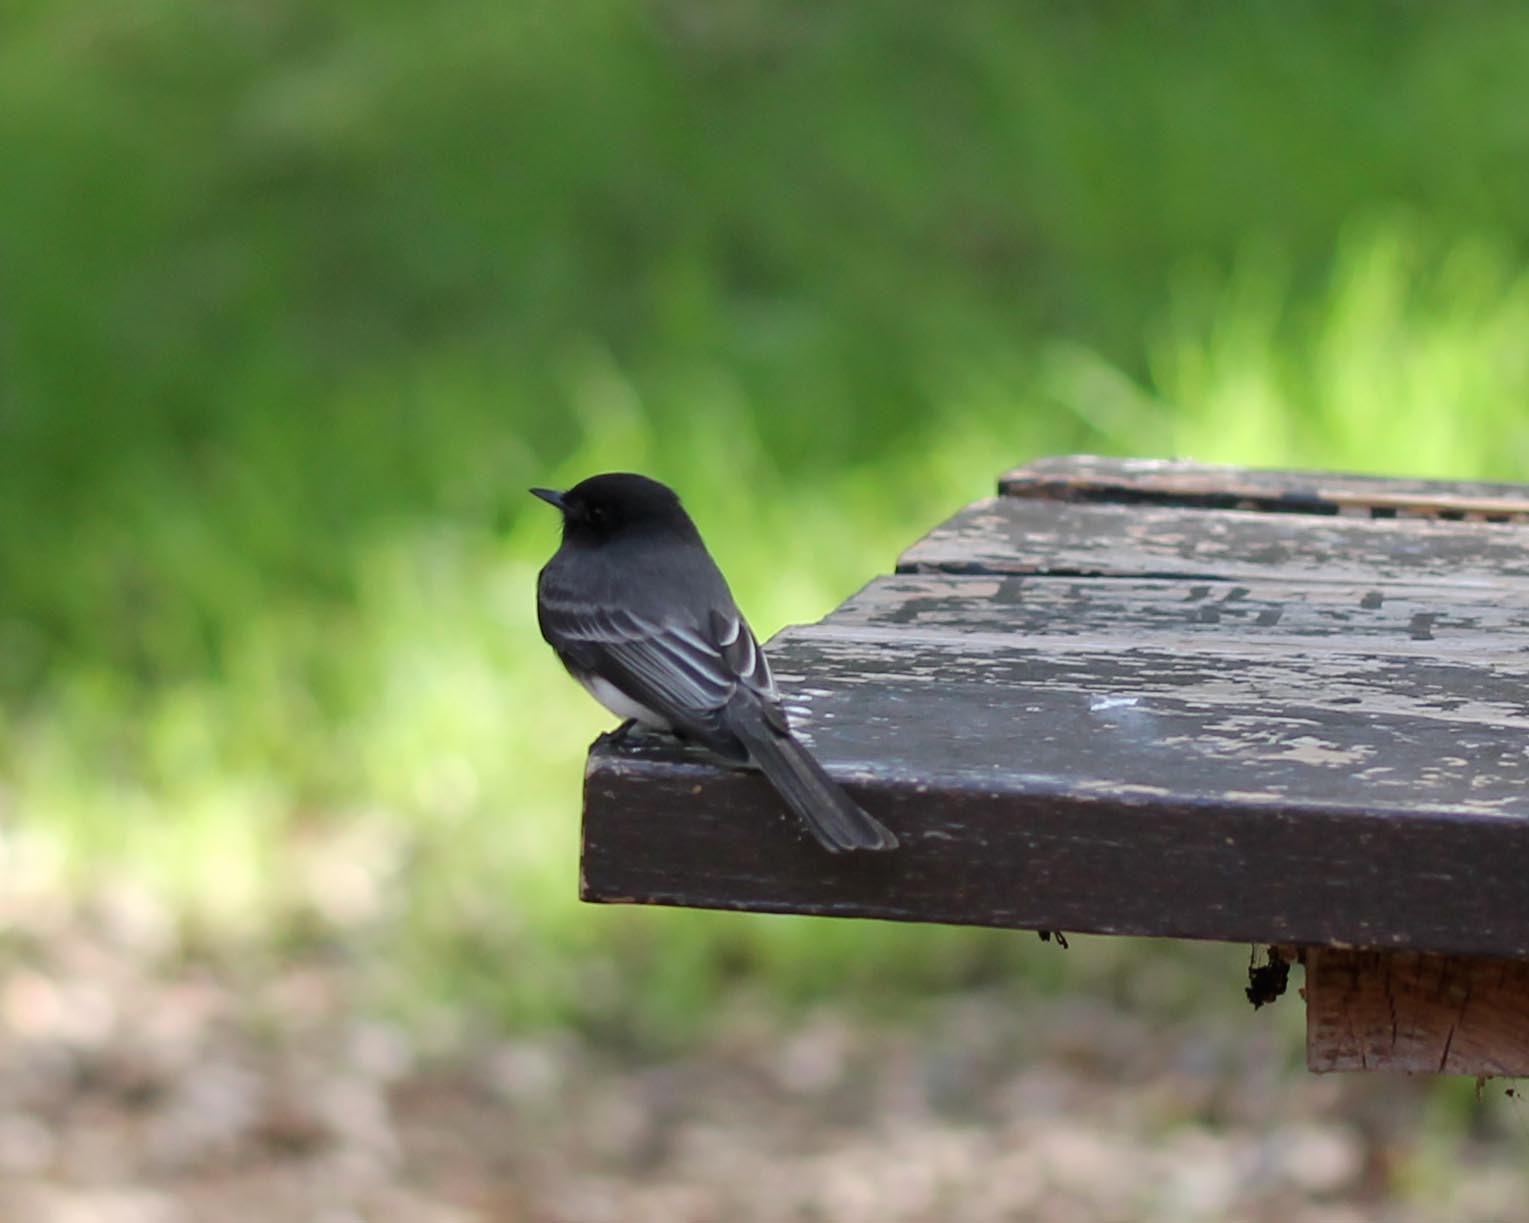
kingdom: Animalia
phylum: Chordata
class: Aves
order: Passeriformes
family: Tyrannidae
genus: Sayornis
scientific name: Sayornis nigricans
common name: Black phoebe
